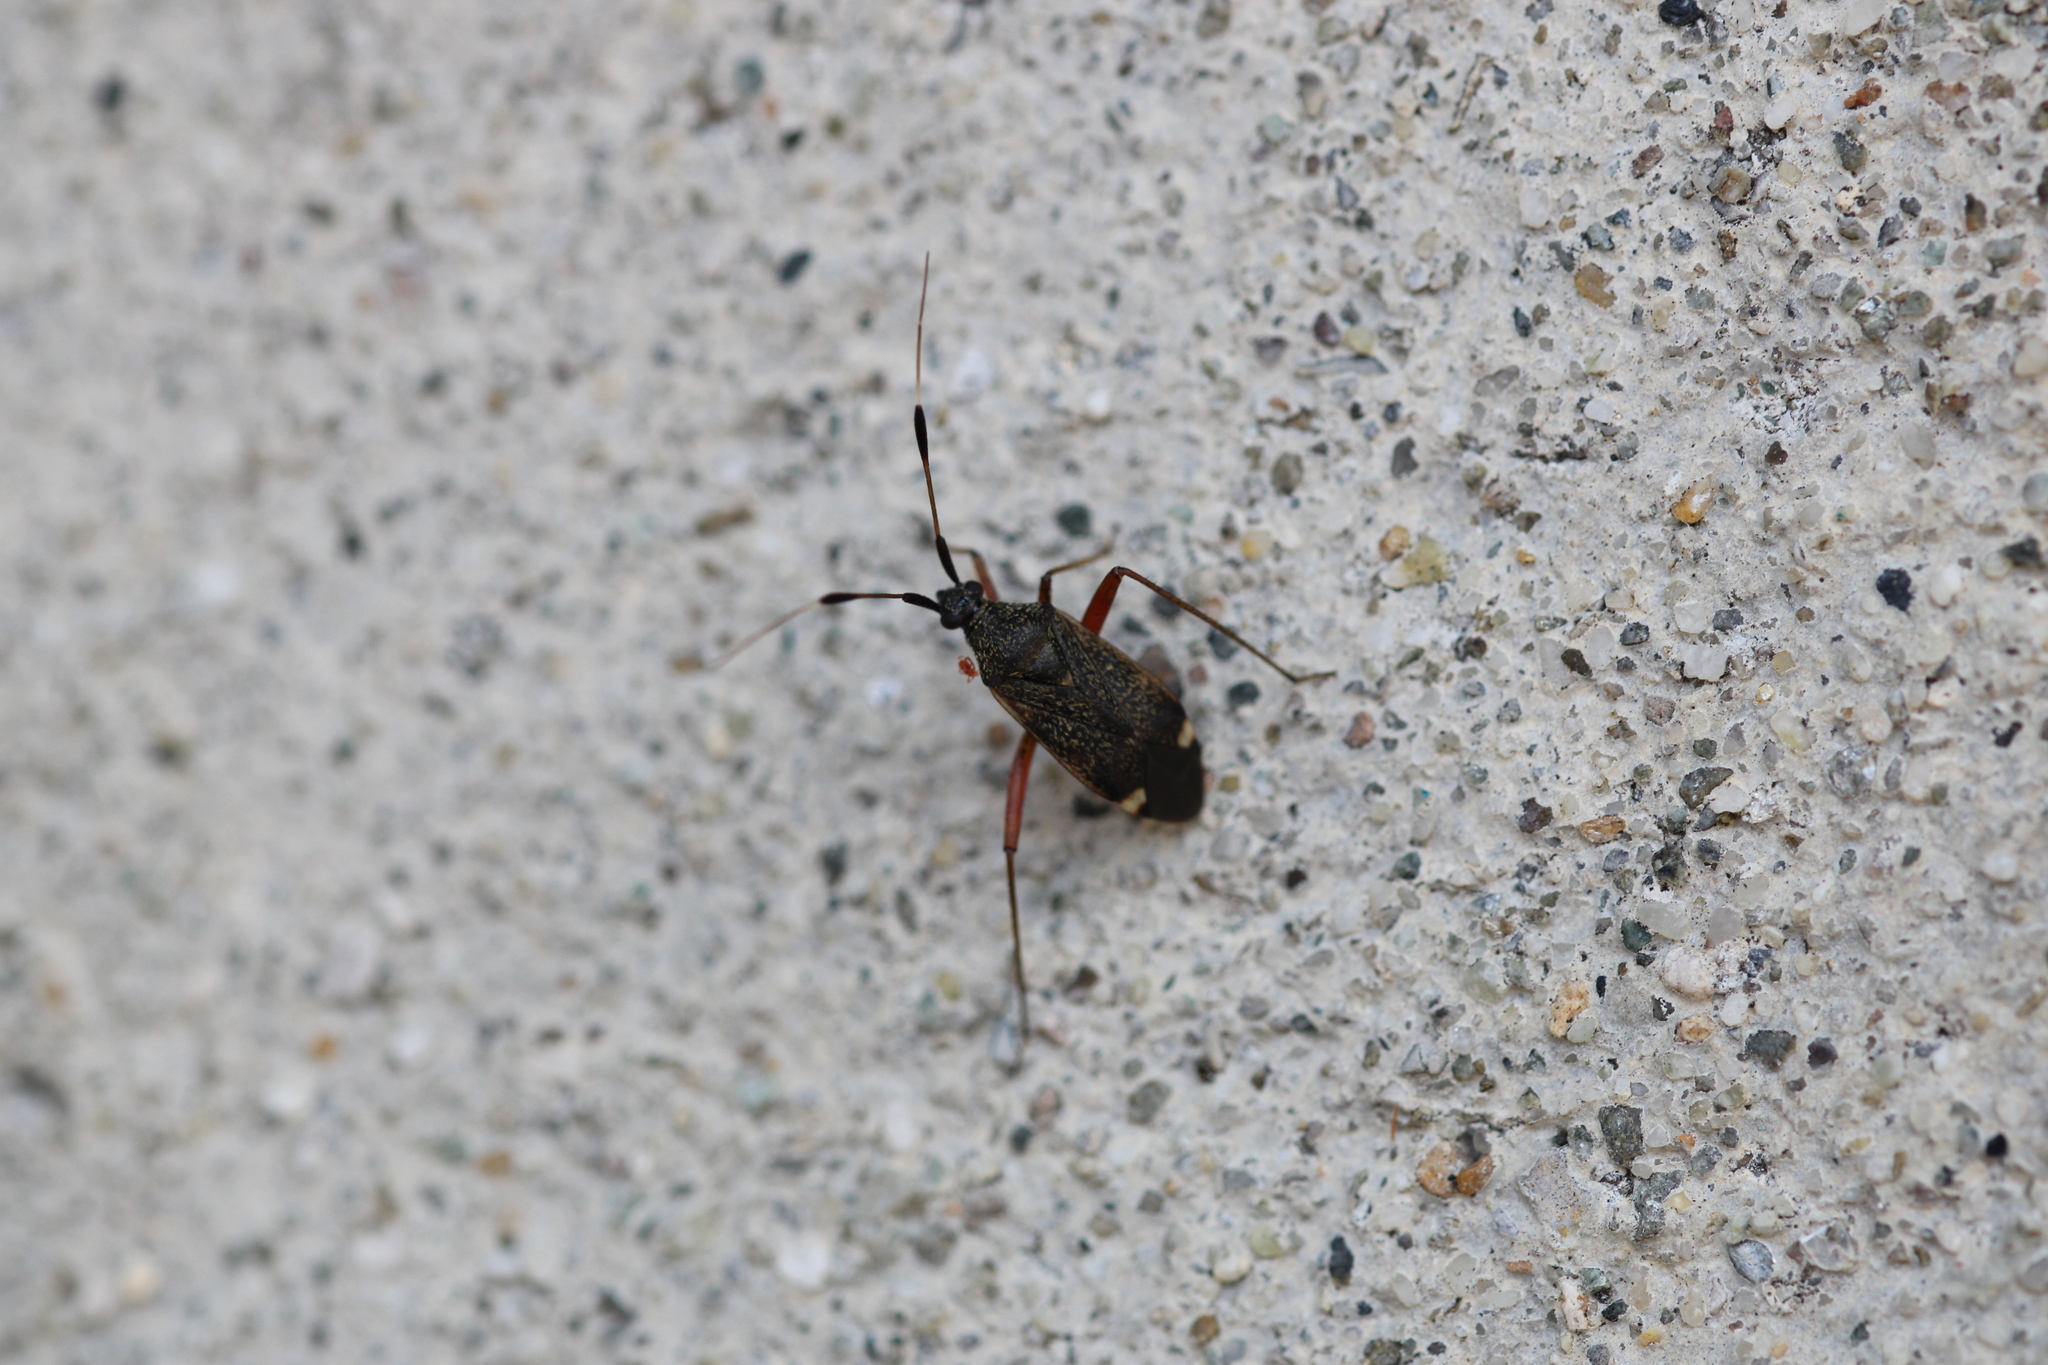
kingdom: Animalia
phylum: Arthropoda
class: Insecta
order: Hemiptera
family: Miridae
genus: Closterotomus
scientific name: Closterotomus biclavatus
